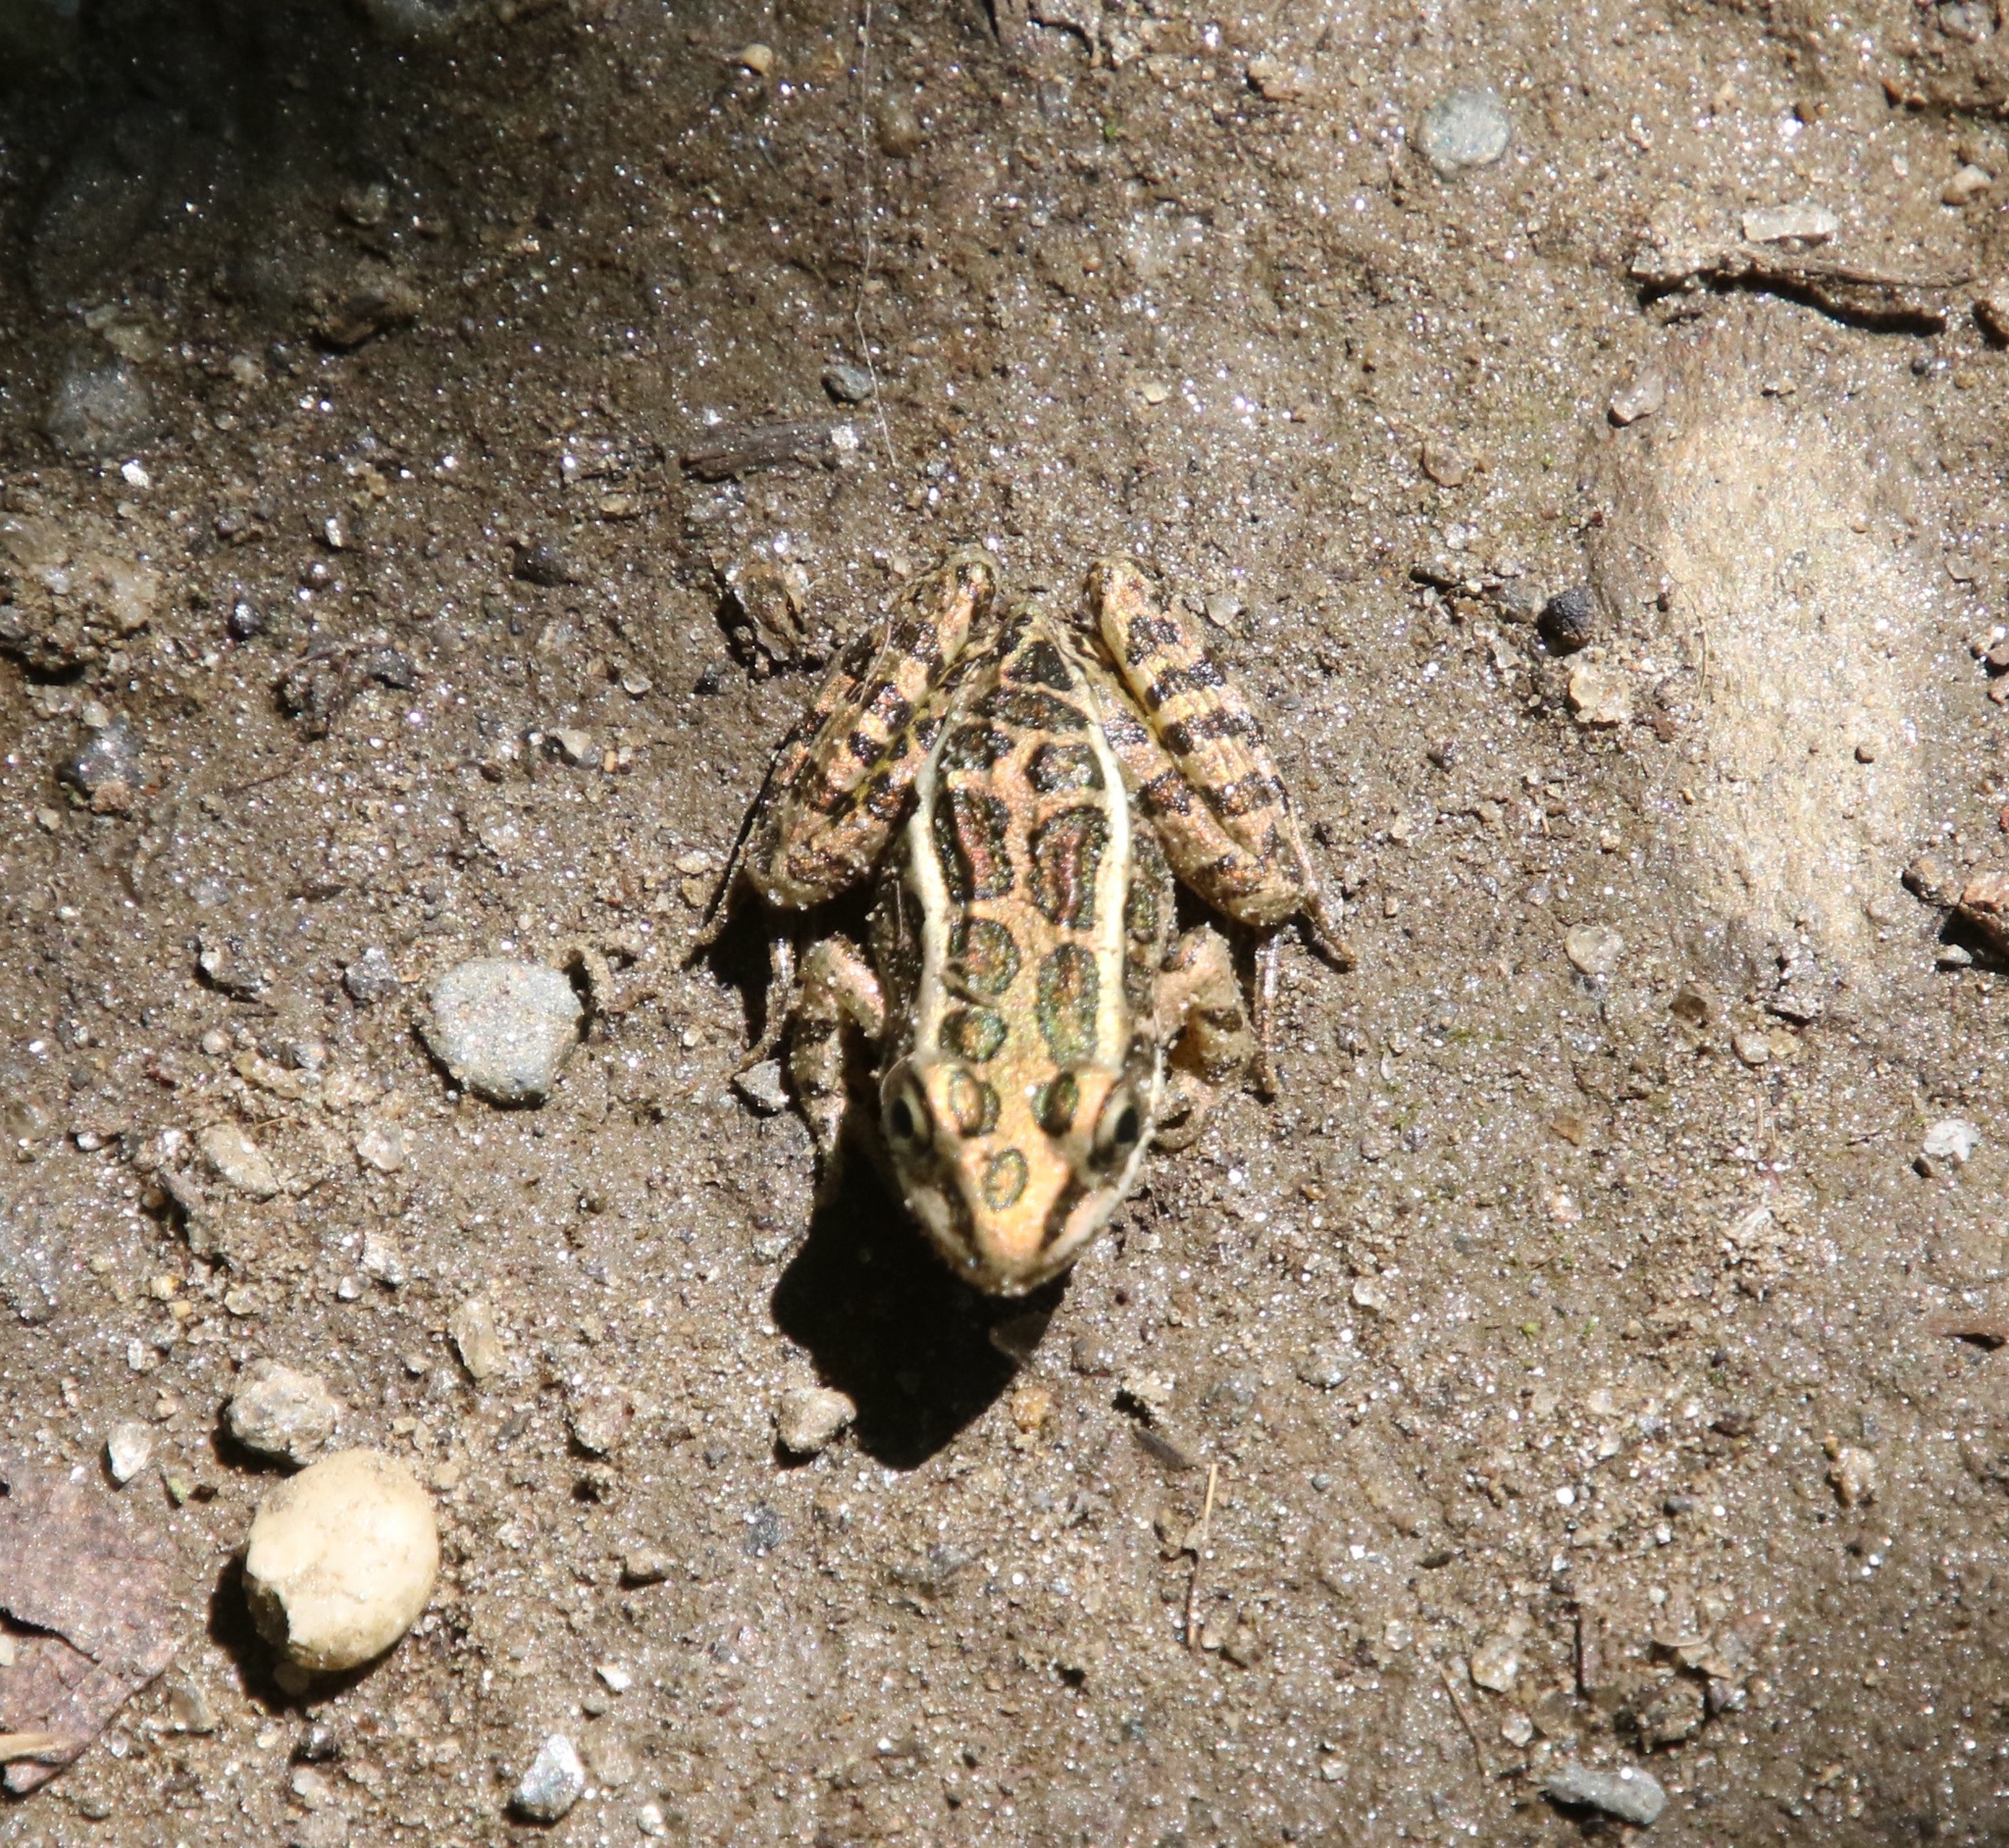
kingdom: Animalia
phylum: Chordata
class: Amphibia
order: Anura
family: Ranidae
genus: Lithobates
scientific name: Lithobates palustris
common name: Pickerel frog
